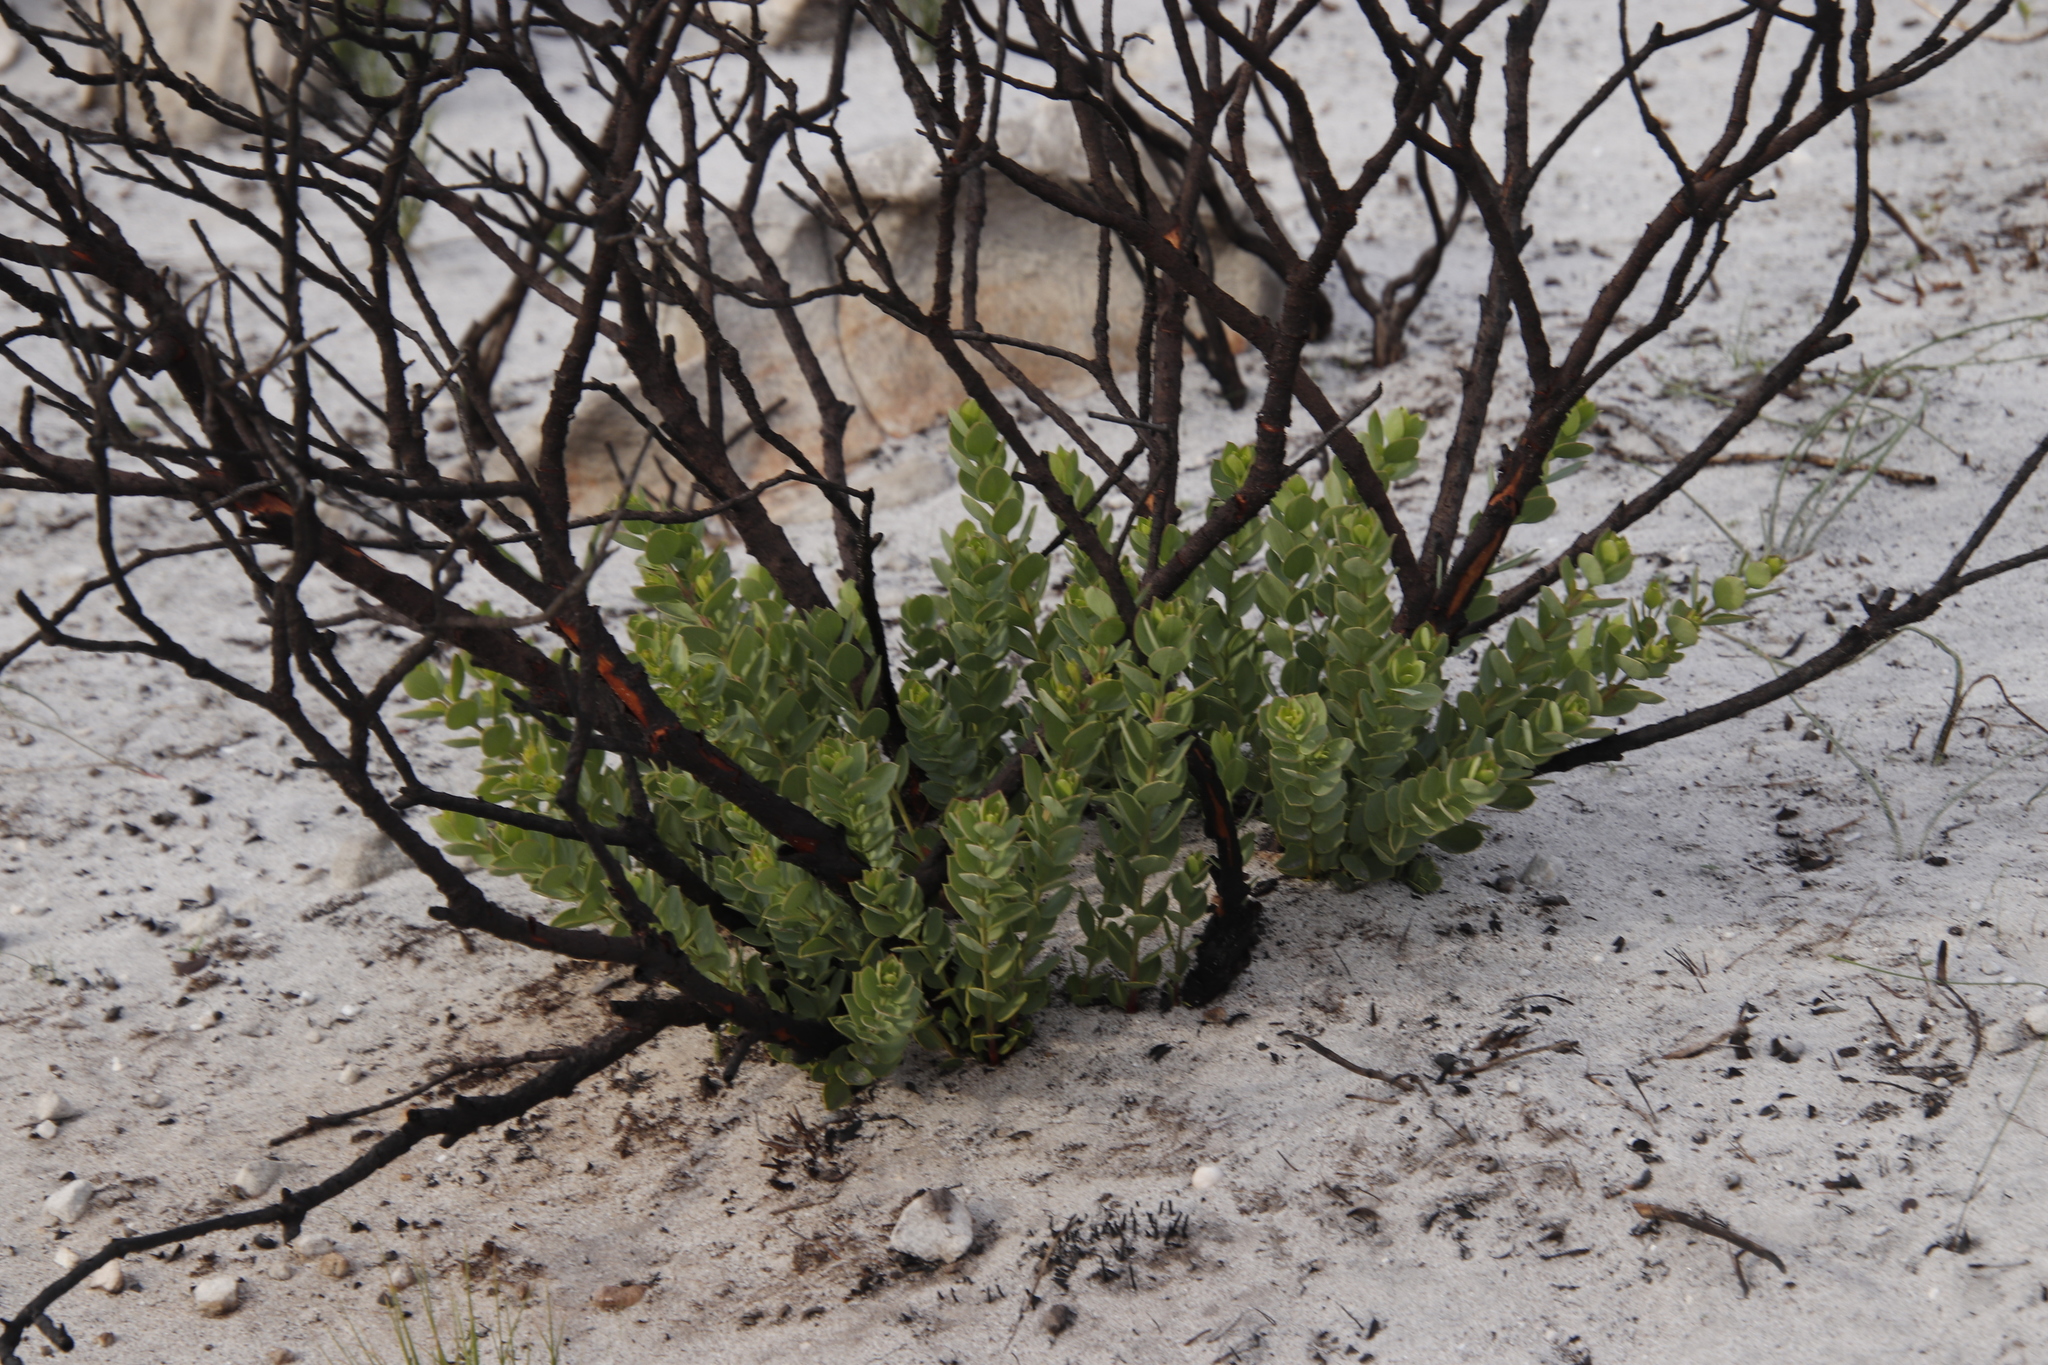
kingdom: Plantae
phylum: Tracheophyta
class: Magnoliopsida
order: Santalales
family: Santalaceae
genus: Osyris
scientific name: Osyris compressa
